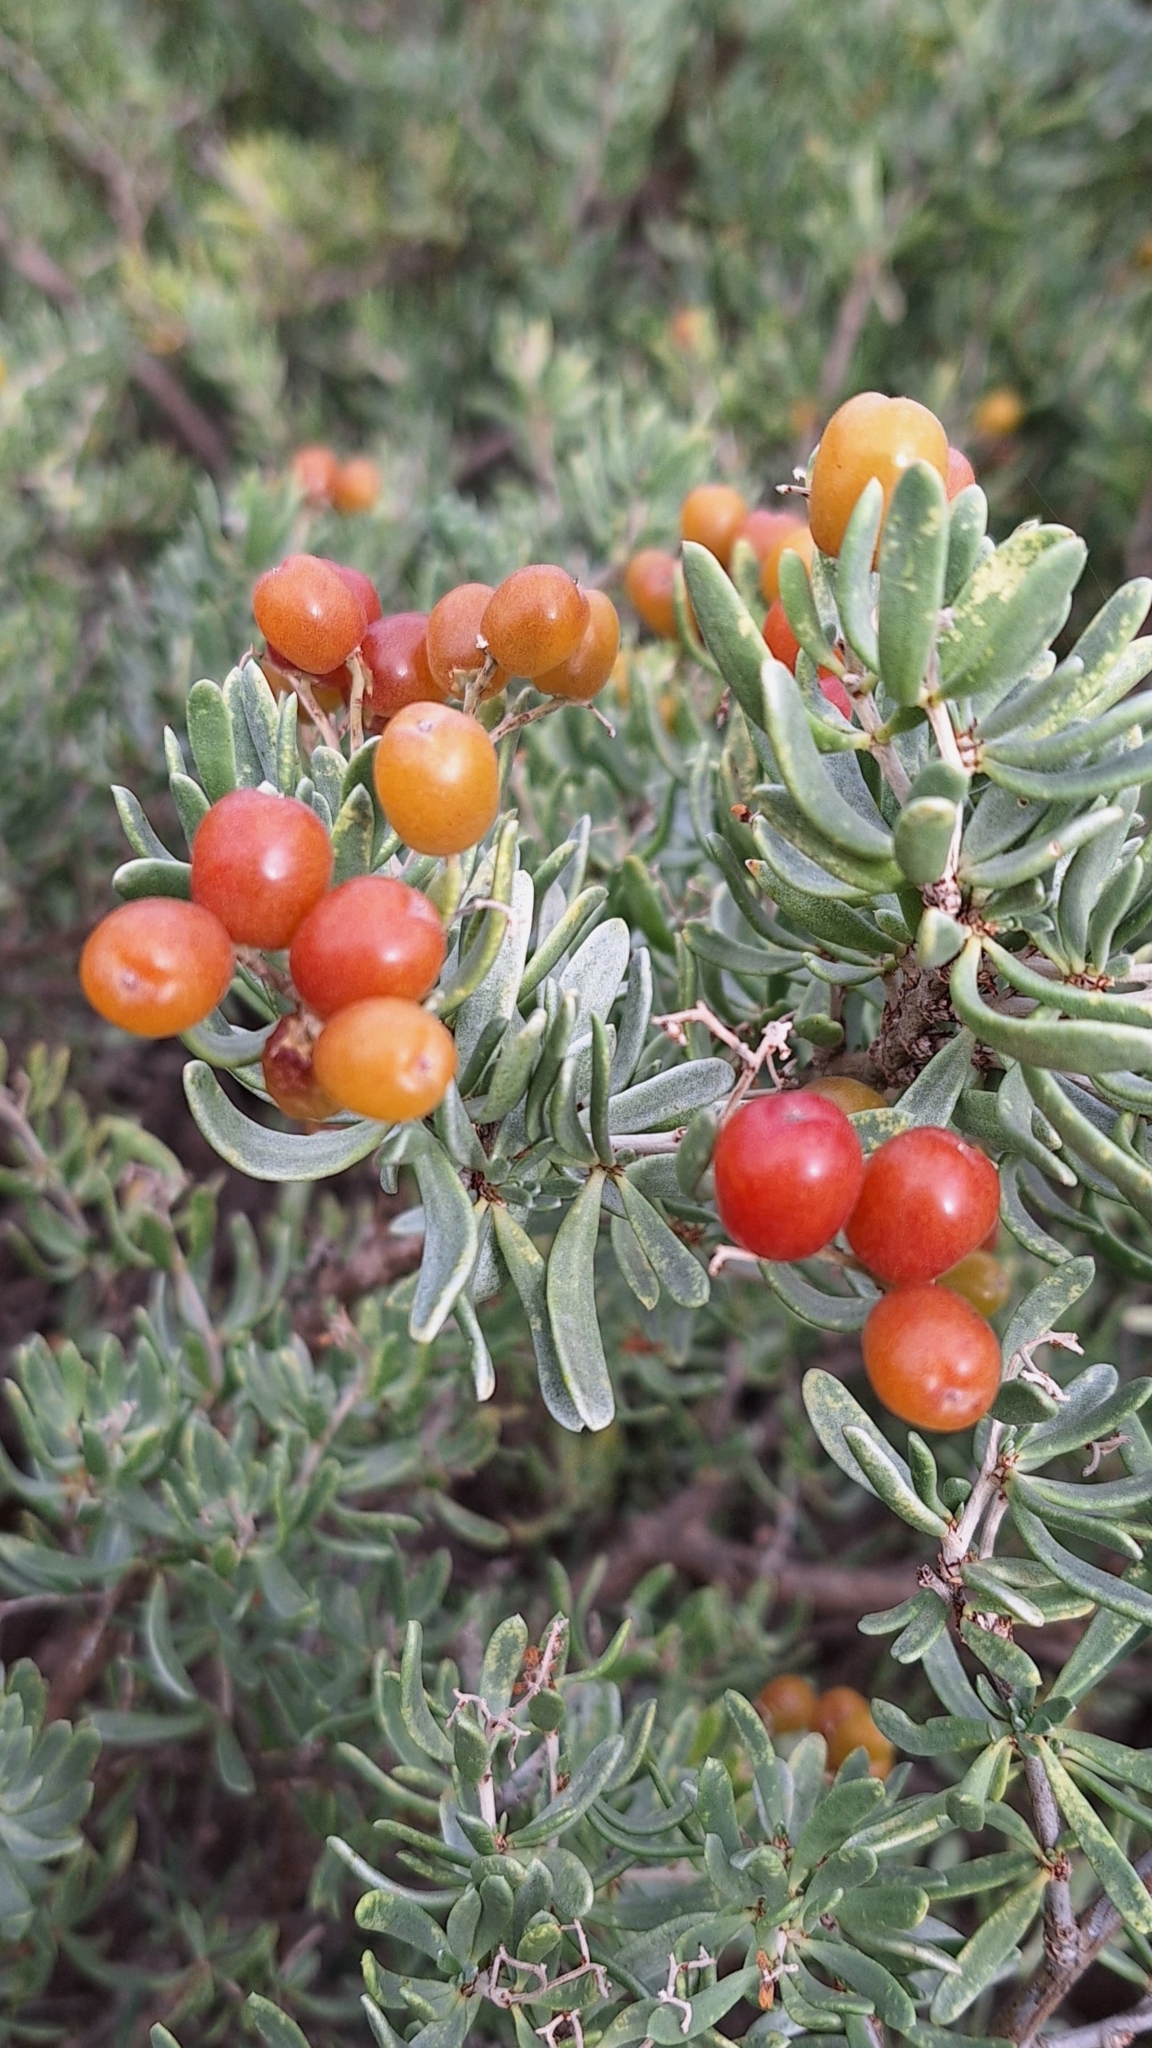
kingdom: Plantae
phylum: Tracheophyta
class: Magnoliopsida
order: Sapindales
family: Nitrariaceae
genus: Nitraria
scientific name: Nitraria billardierei
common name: Dillonbush
